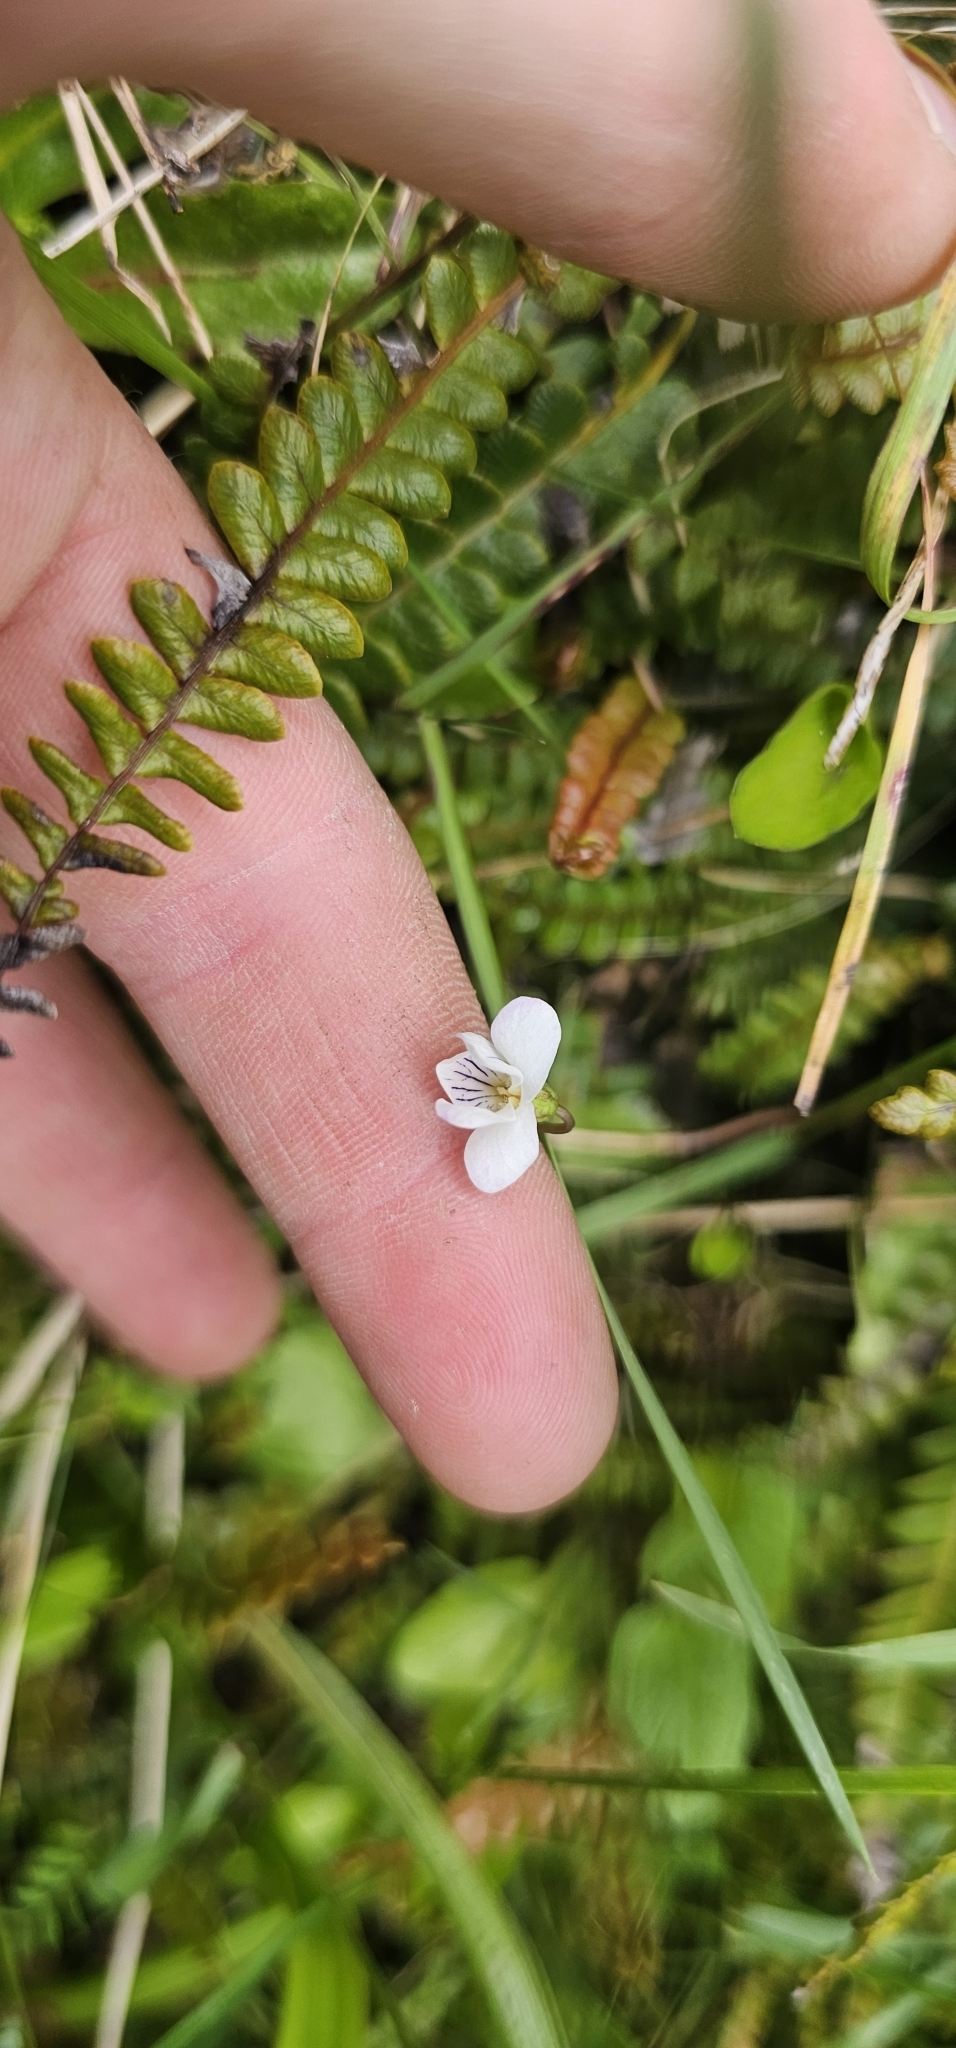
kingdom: Plantae
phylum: Tracheophyta
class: Magnoliopsida
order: Malpighiales
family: Violaceae
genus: Viola
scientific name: Viola cunninghamii
